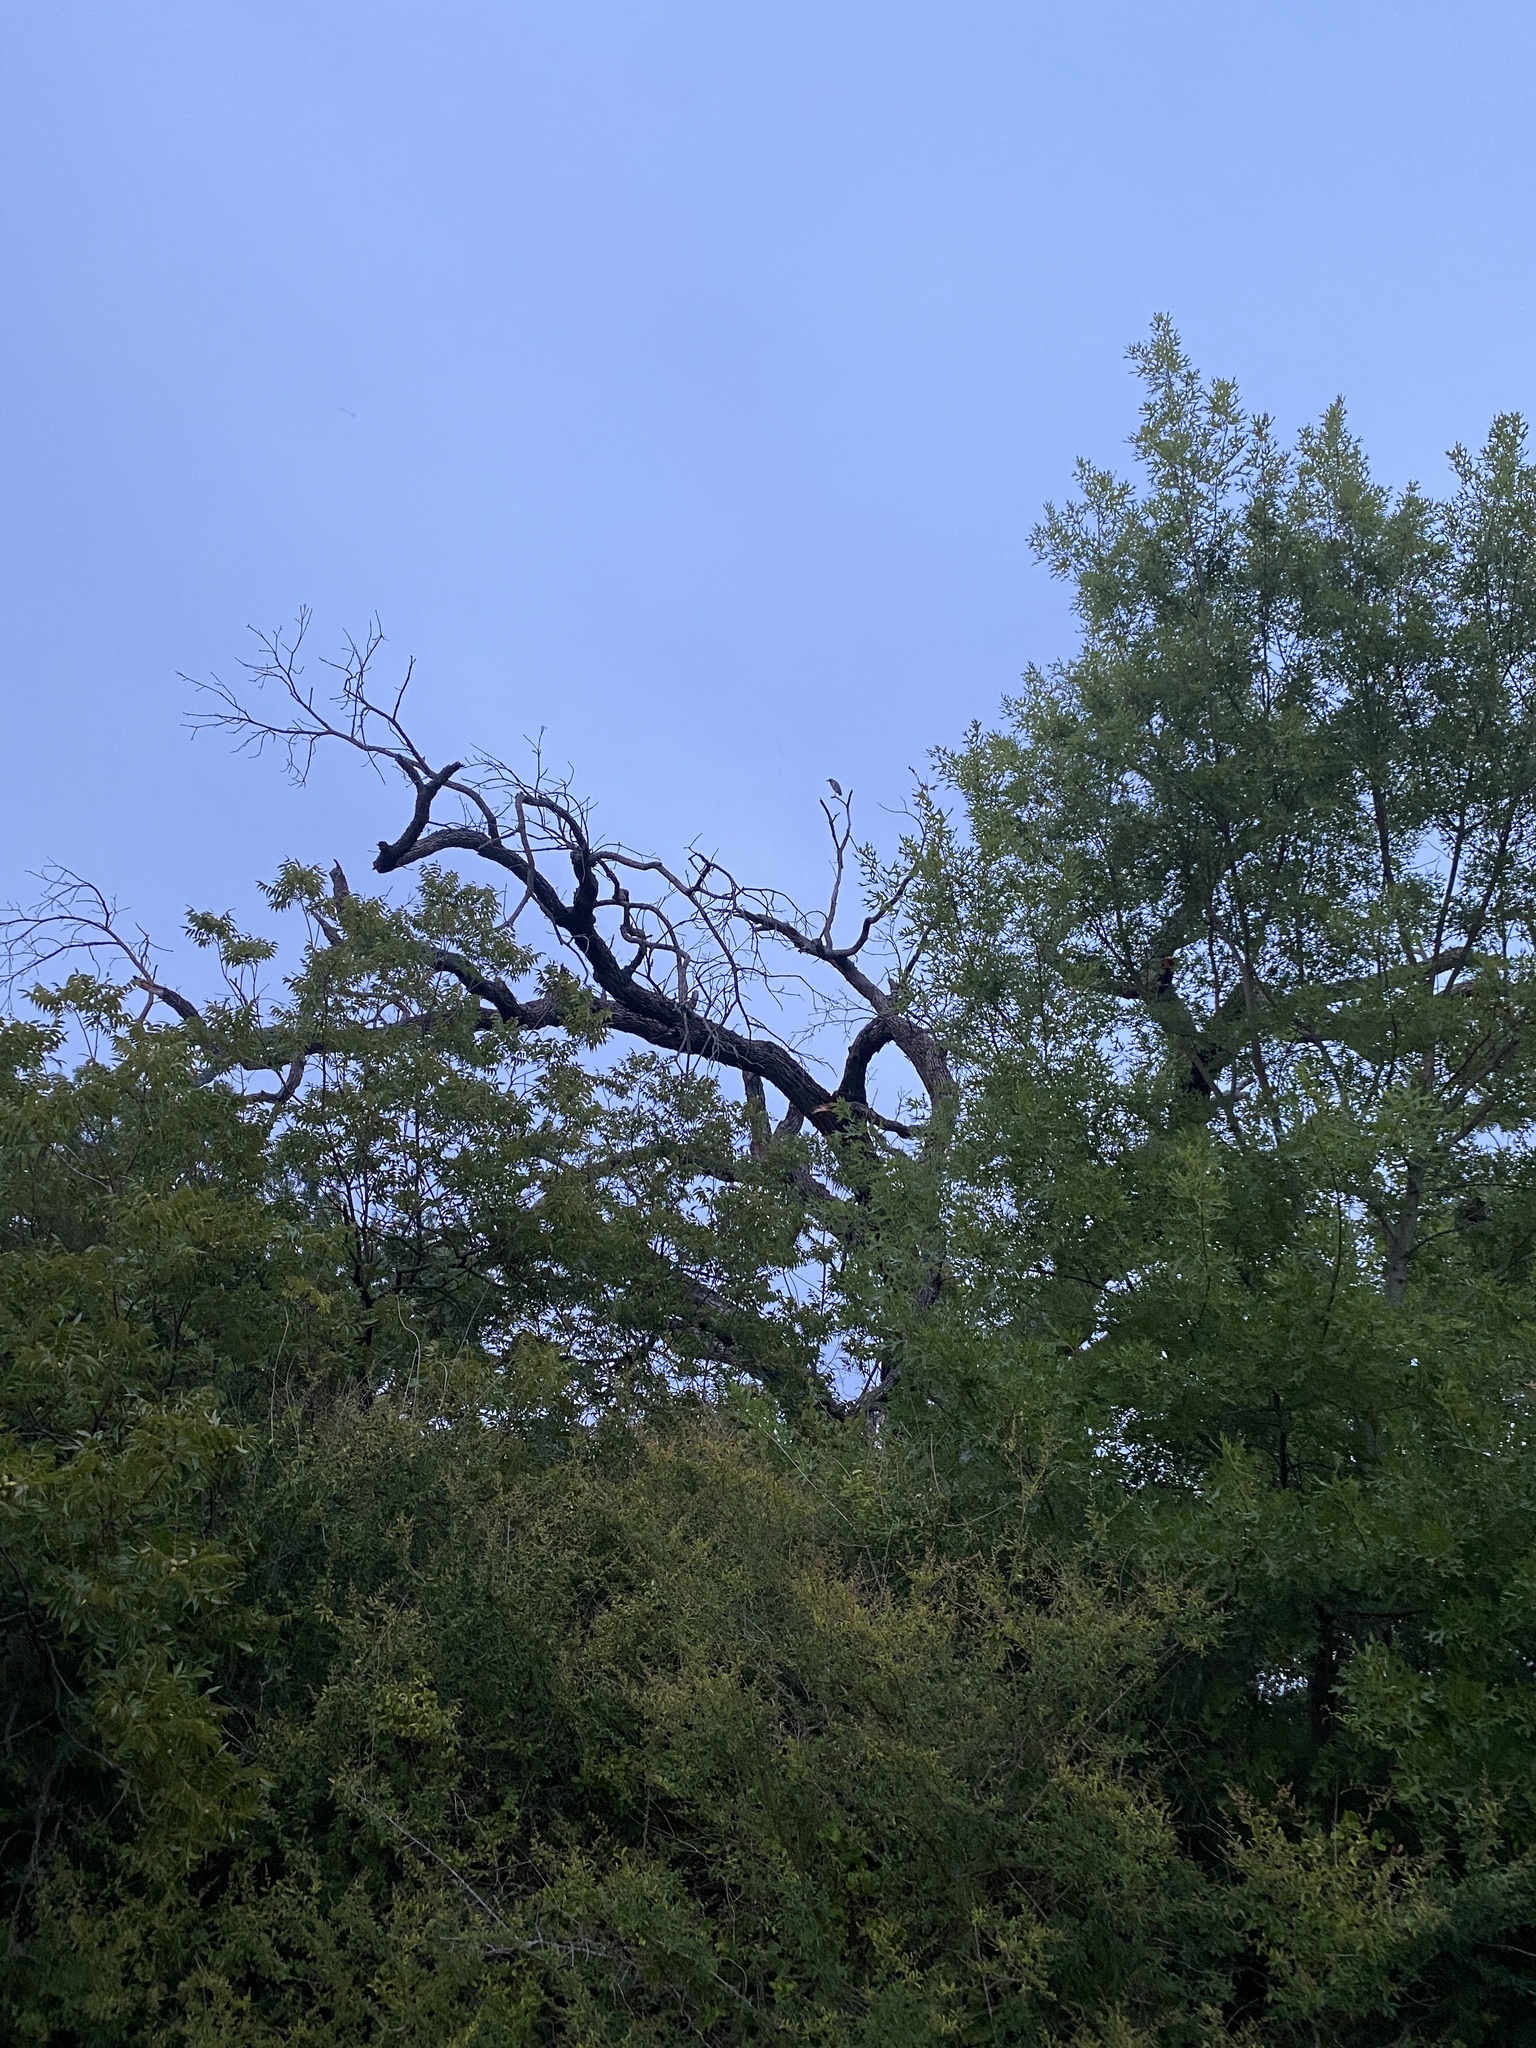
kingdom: Animalia
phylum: Chordata
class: Aves
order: Pelecaniformes
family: Ardeidae
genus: Nyctanassa
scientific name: Nyctanassa violacea
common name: Yellow-crowned night heron
